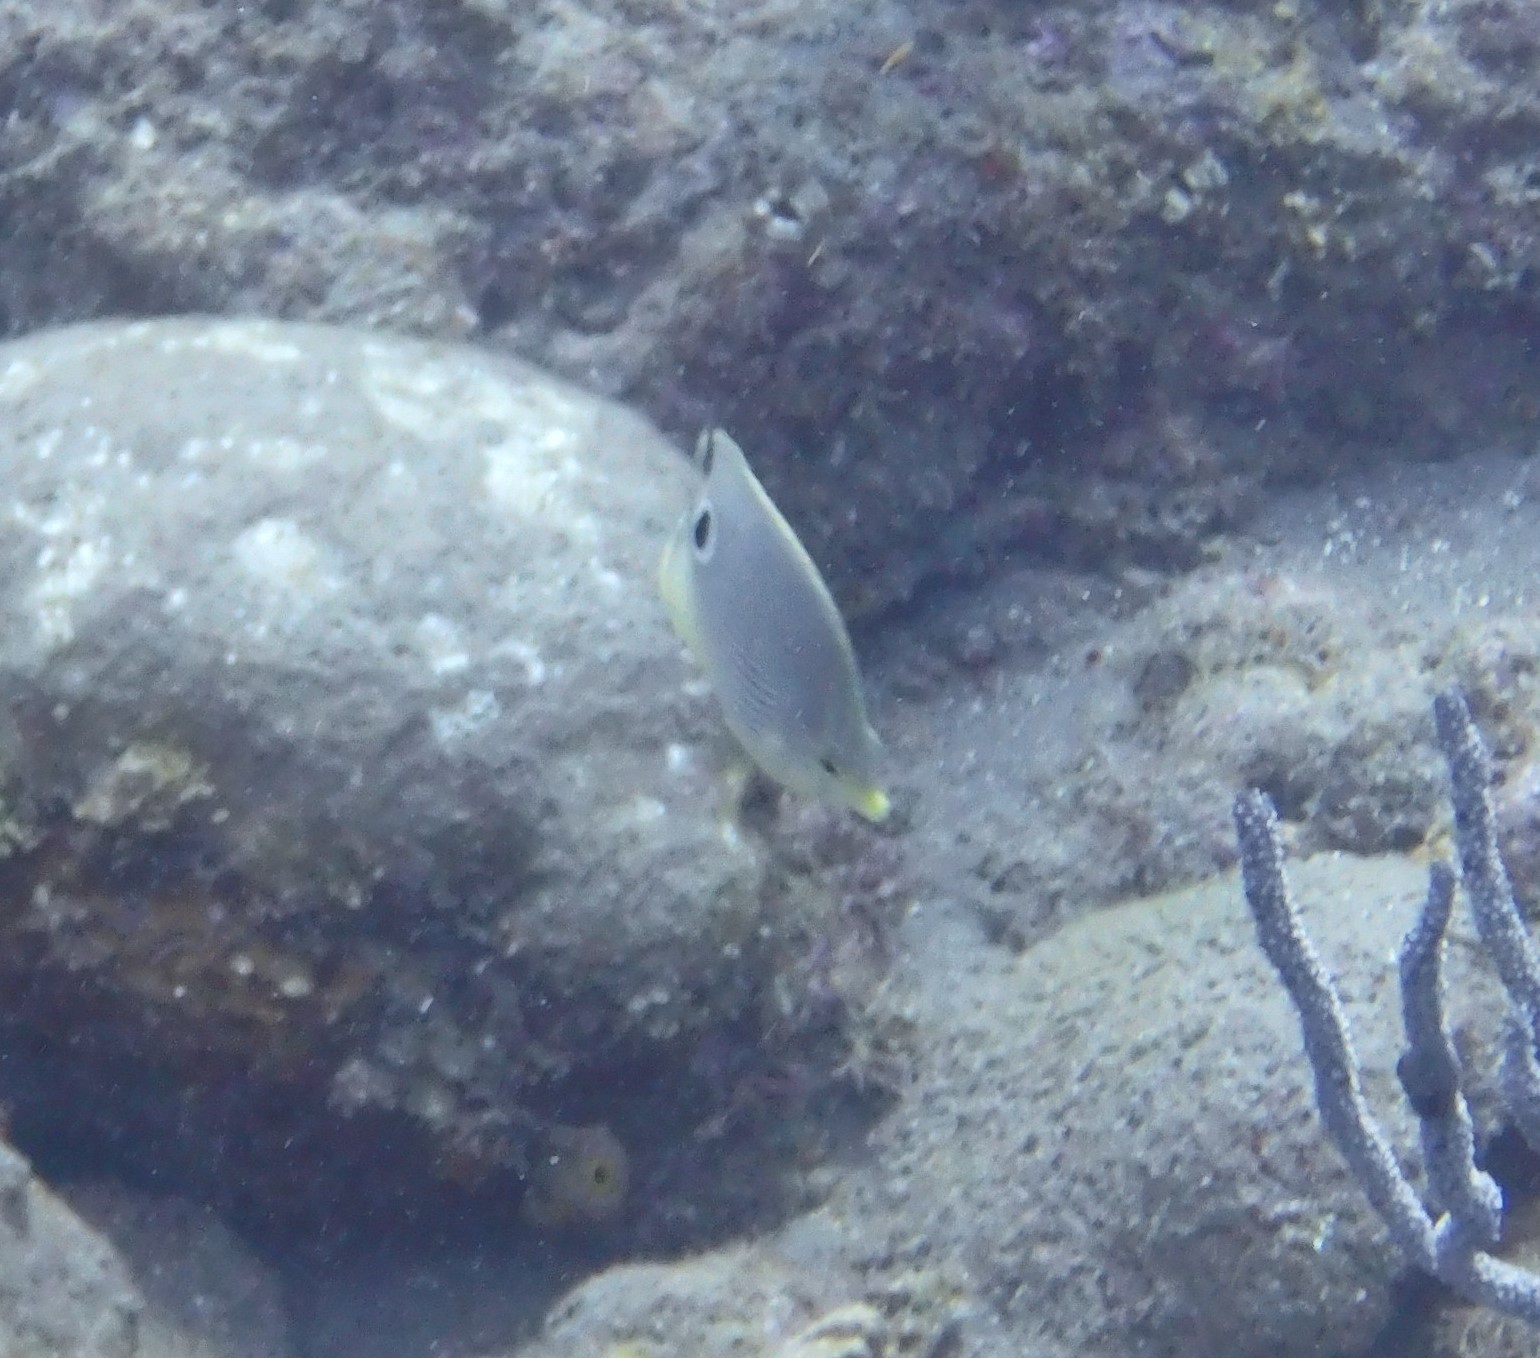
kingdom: Animalia
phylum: Chordata
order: Perciformes
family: Chaetodontidae
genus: Chaetodon
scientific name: Chaetodon capistratus
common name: Kete
